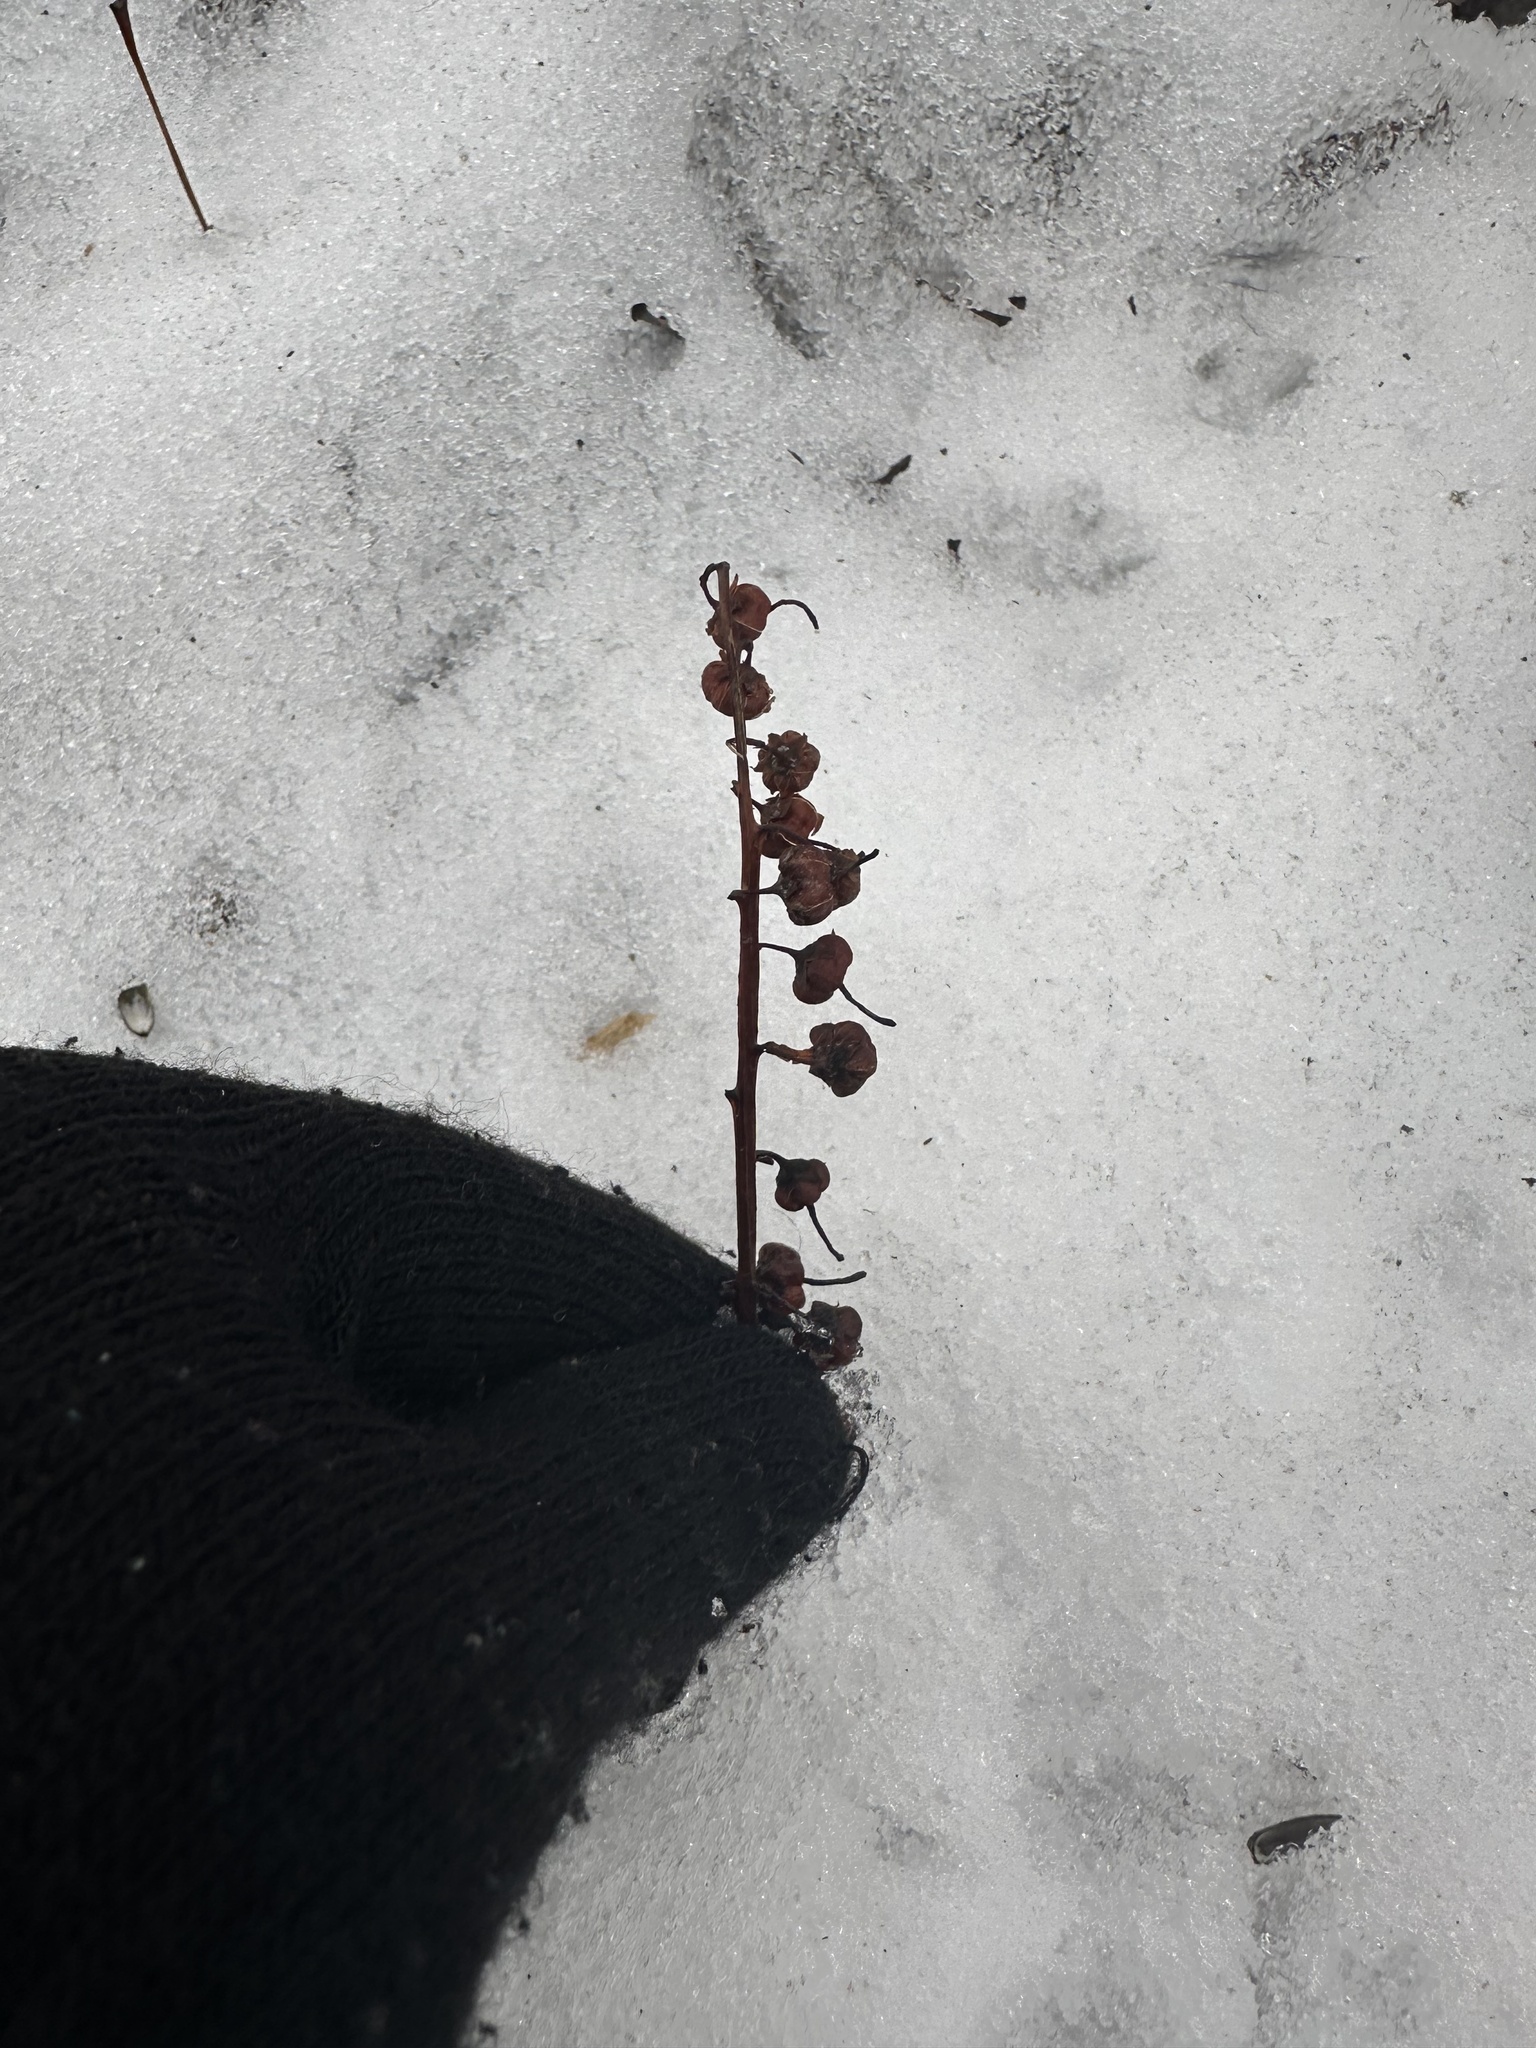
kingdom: Plantae
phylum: Tracheophyta
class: Magnoliopsida
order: Ericales
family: Ericaceae
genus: Orthilia
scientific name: Orthilia secunda
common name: One-sided orthilia
